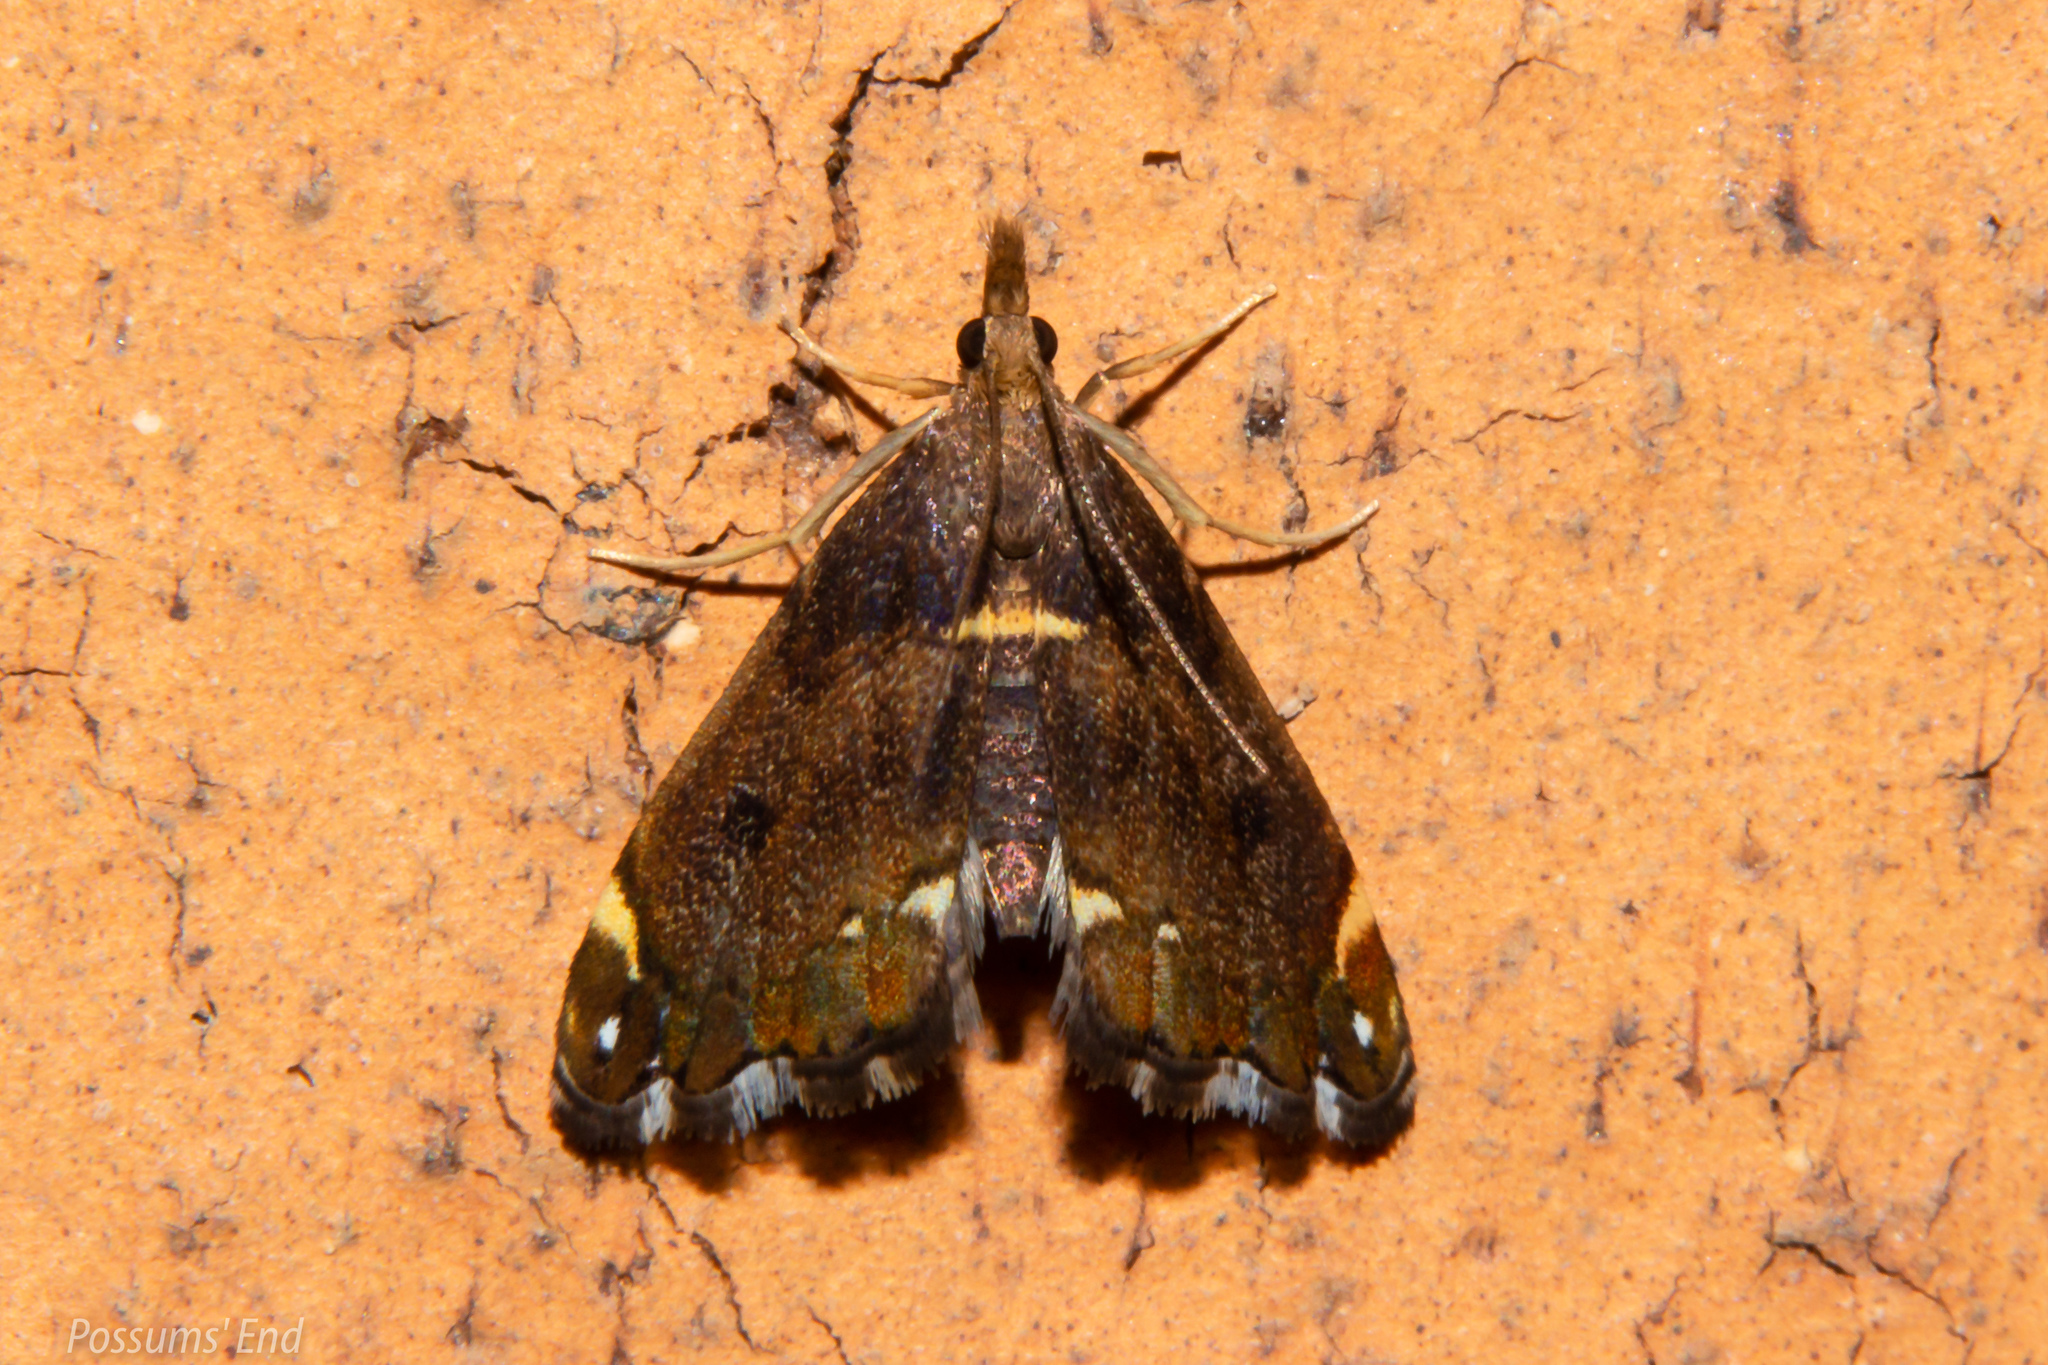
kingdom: Animalia
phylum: Arthropoda
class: Insecta
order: Lepidoptera
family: Crambidae
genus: Glaucocharis
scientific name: Glaucocharis pyrsophanes
